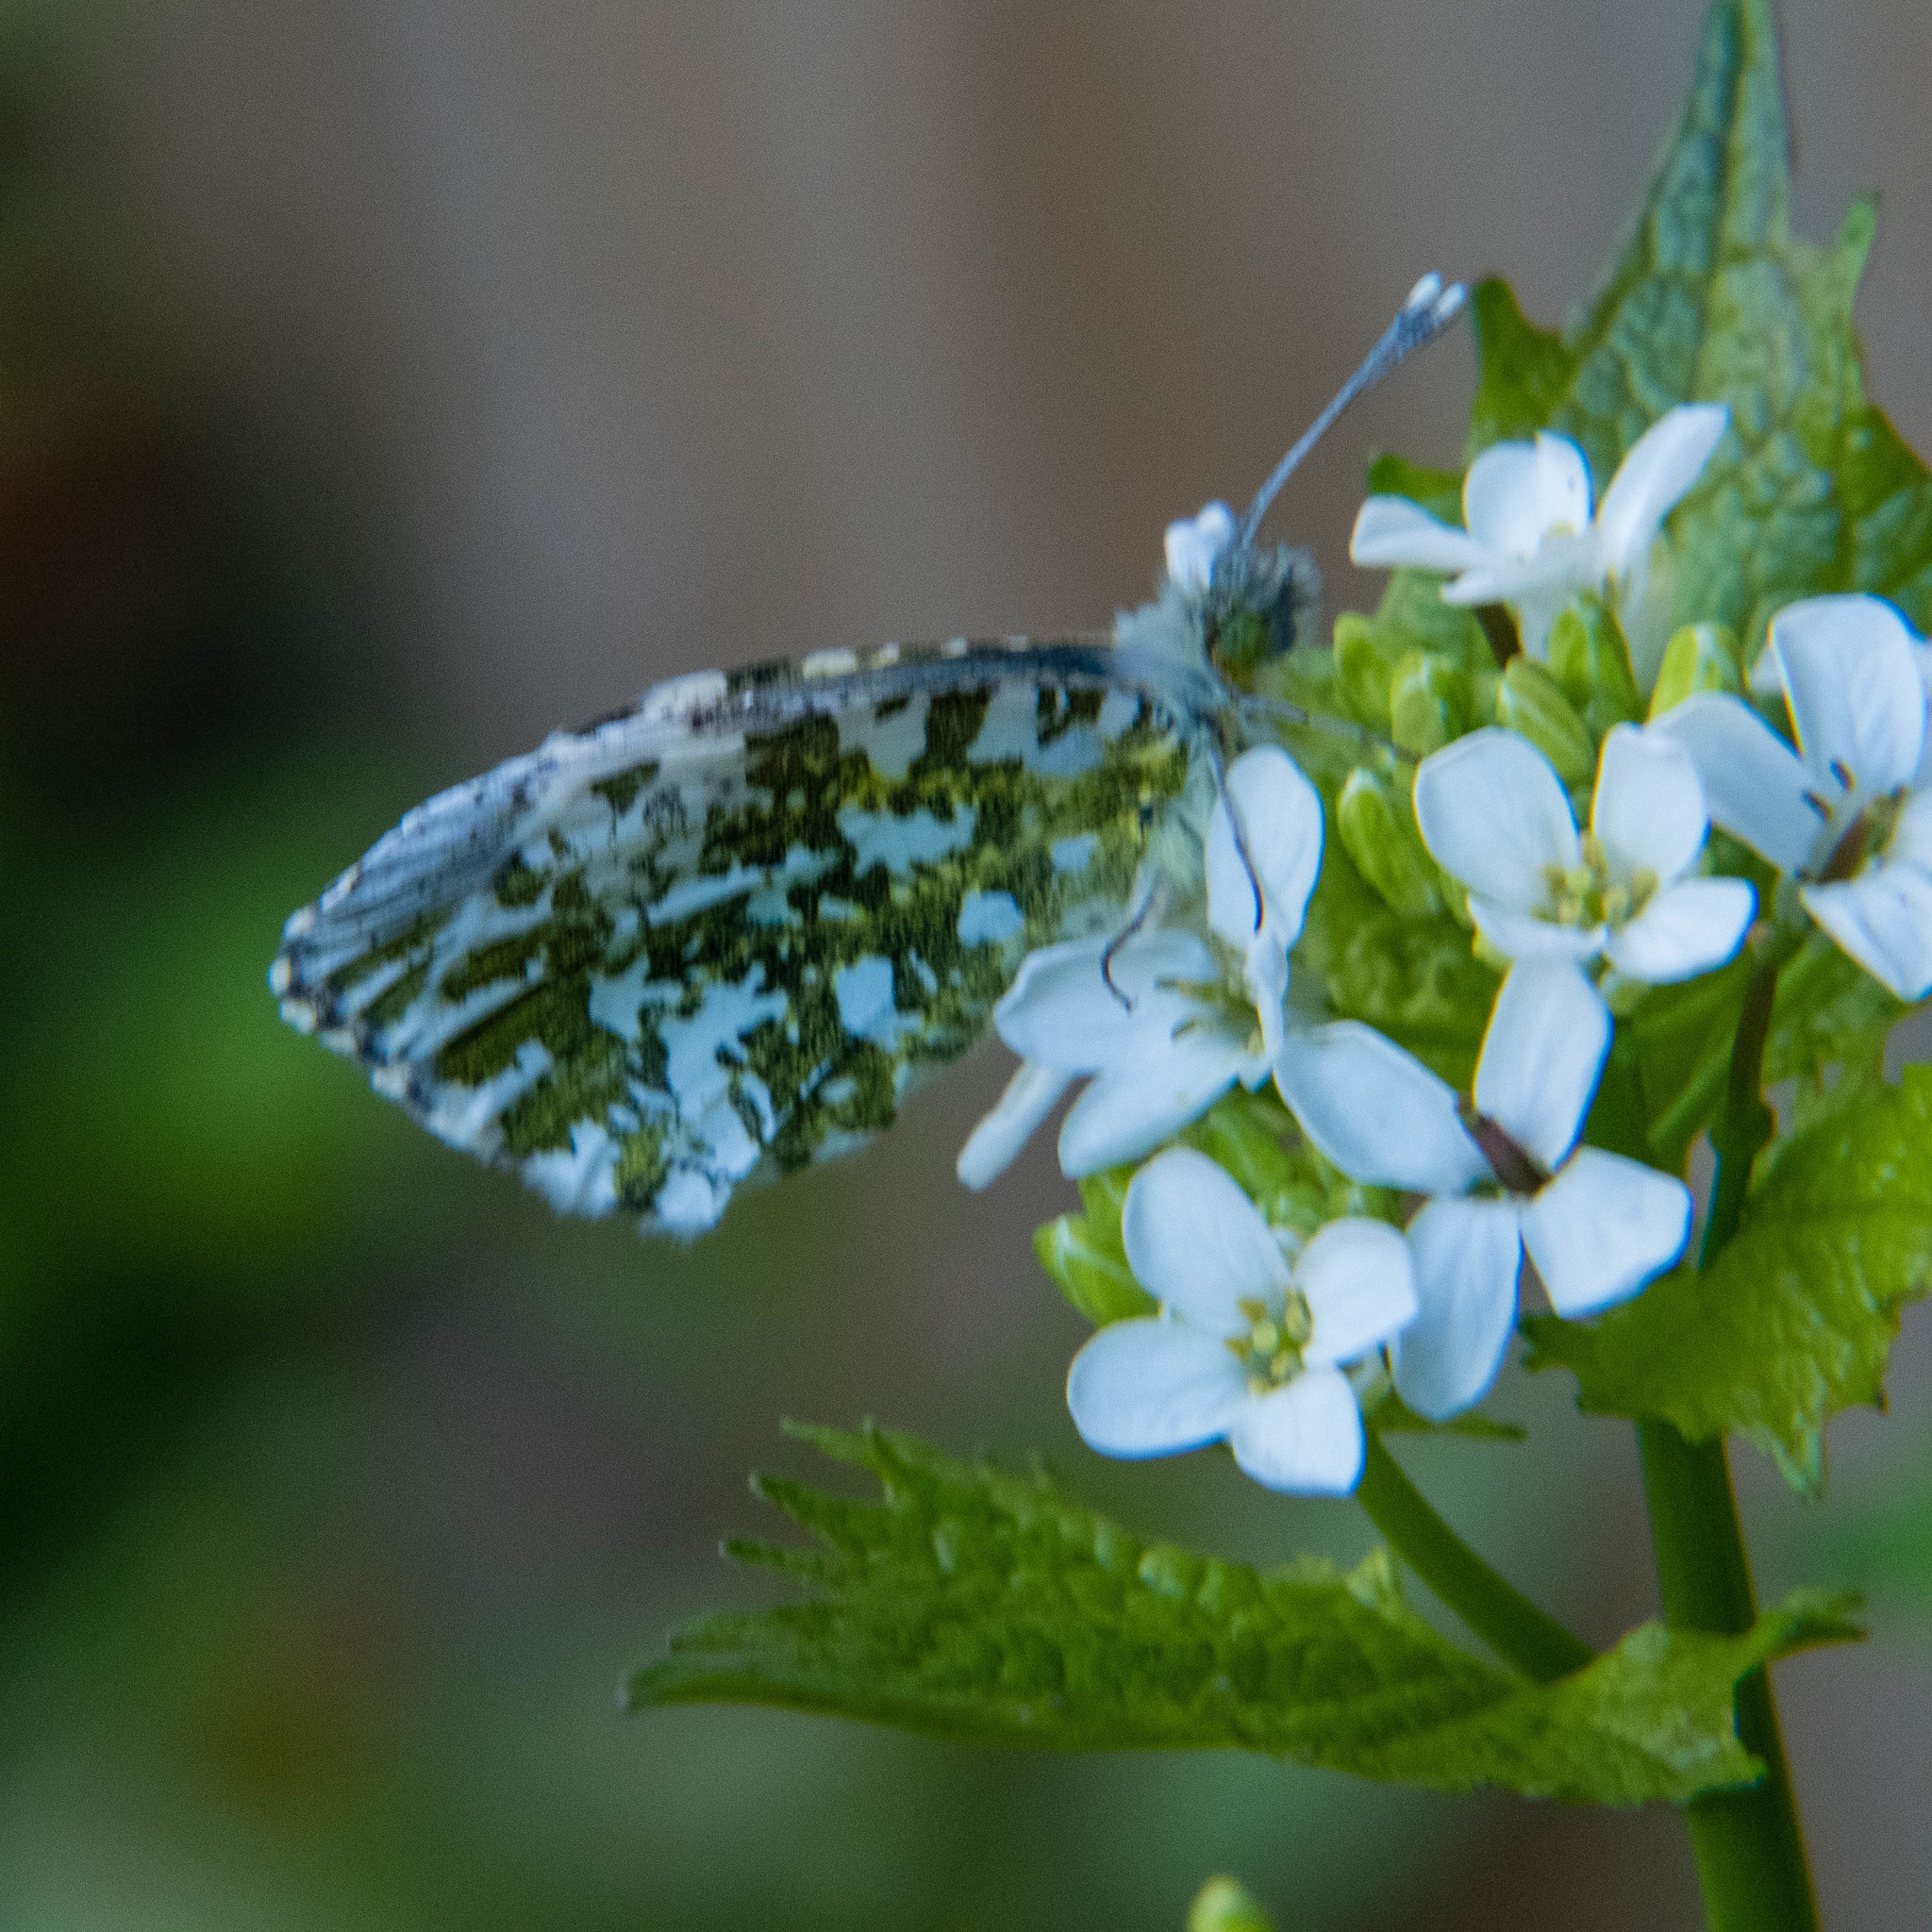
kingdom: Animalia
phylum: Arthropoda
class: Insecta
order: Lepidoptera
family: Pieridae
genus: Anthocharis
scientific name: Anthocharis cardamines
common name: Orange-tip
